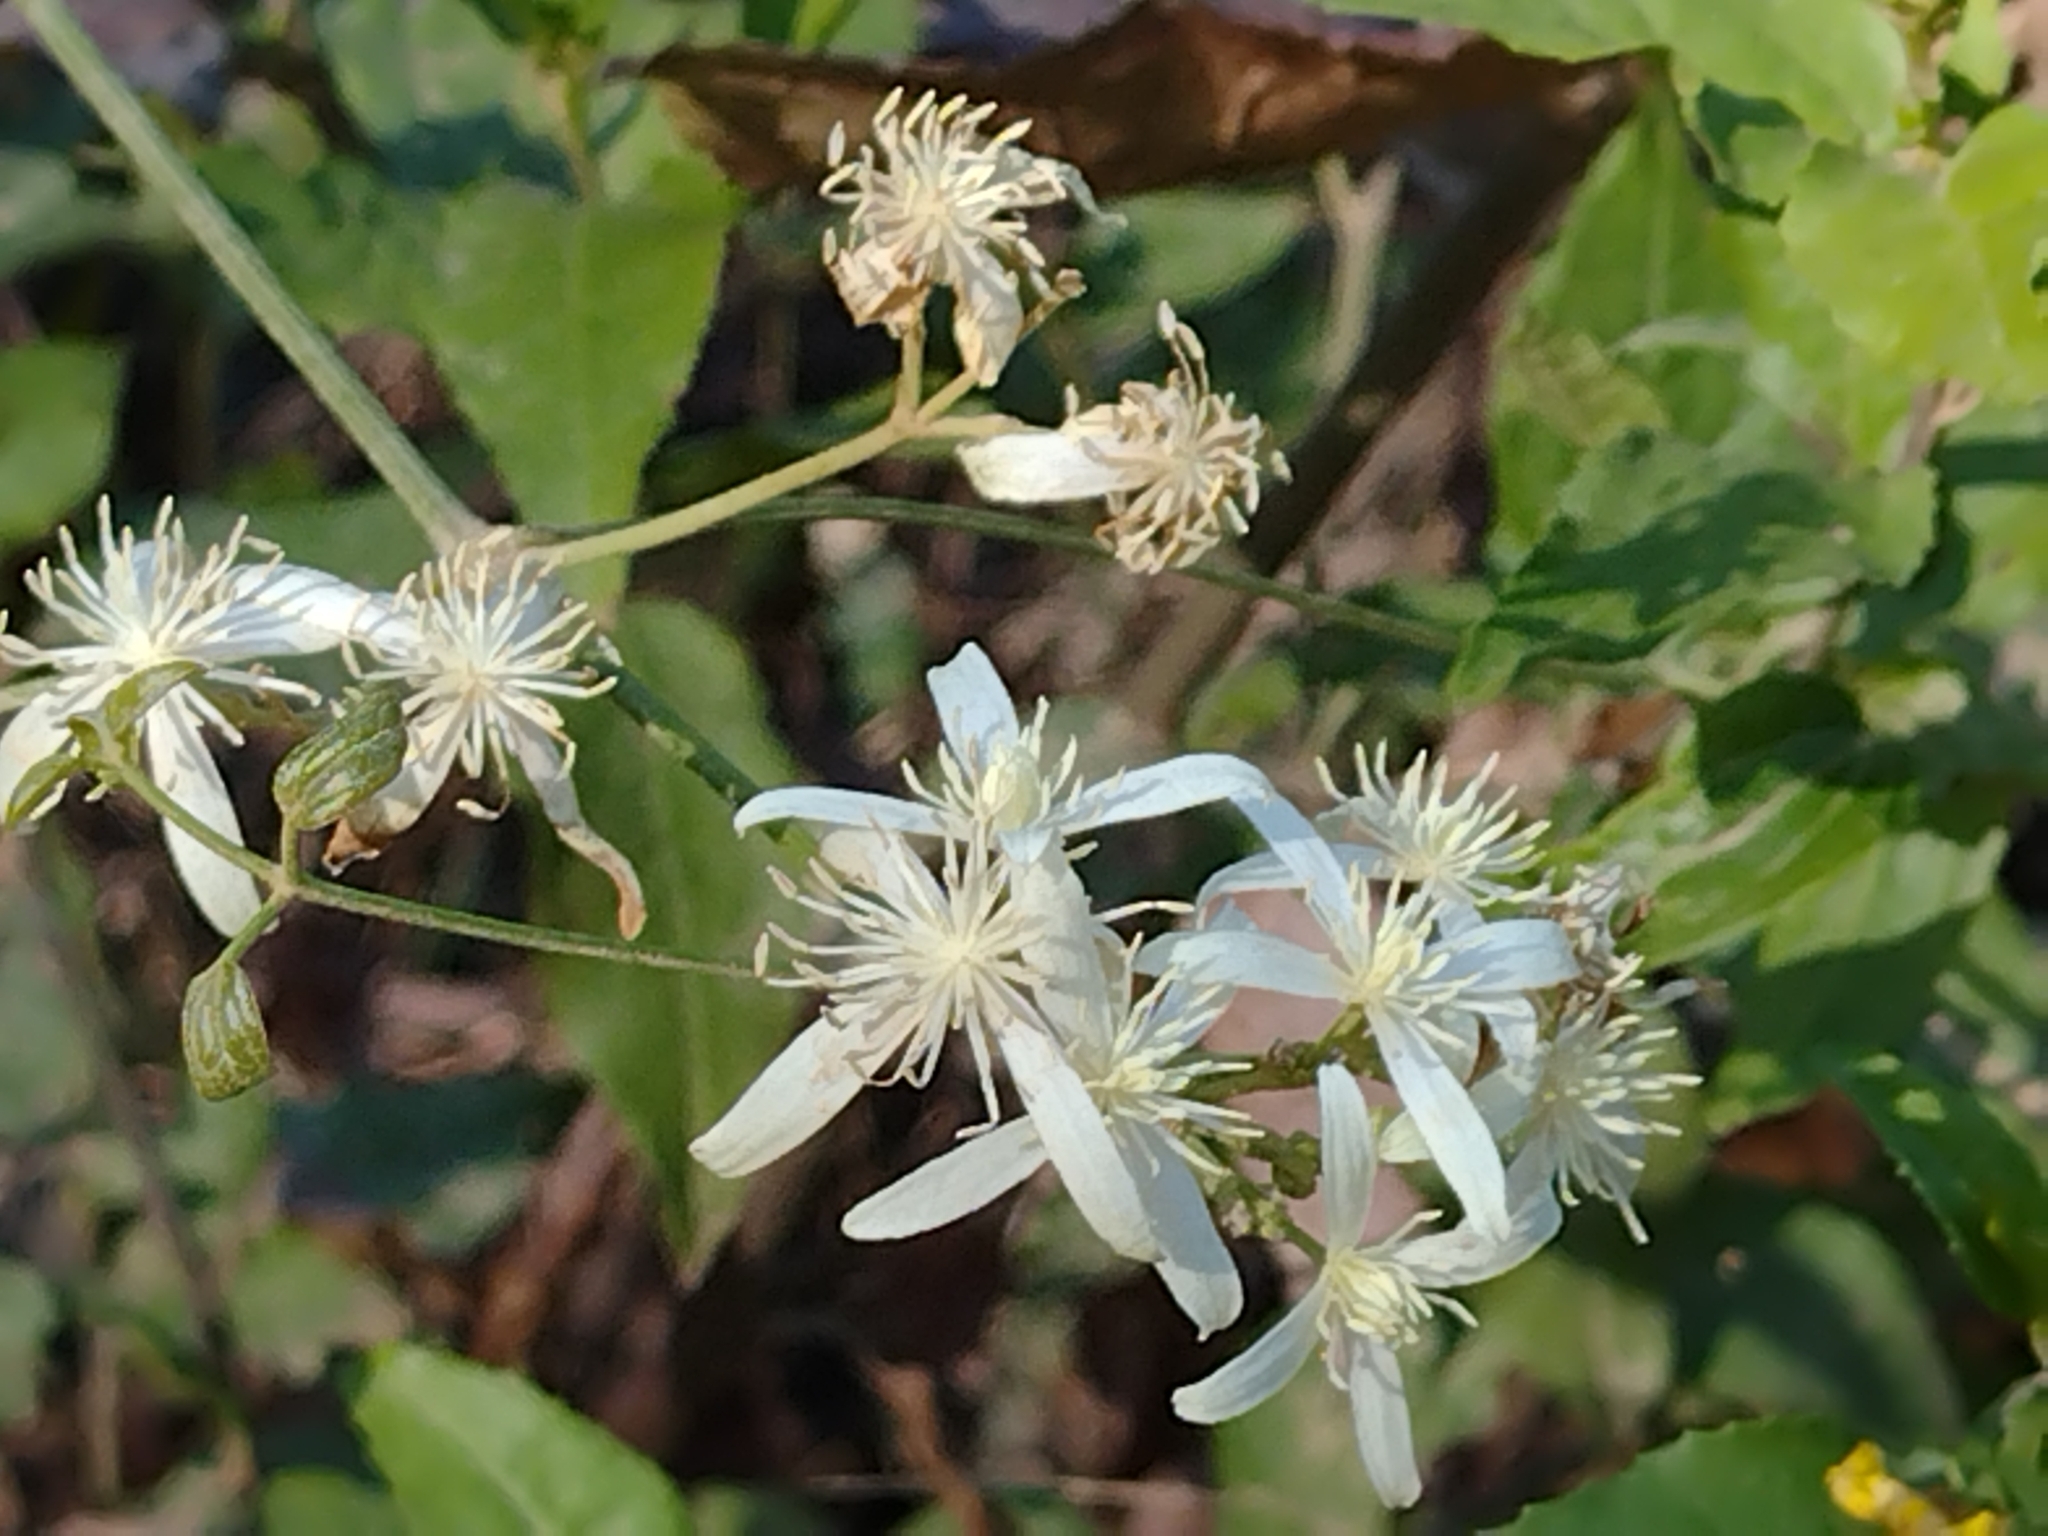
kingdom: Plantae
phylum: Tracheophyta
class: Magnoliopsida
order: Ranunculales
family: Ranunculaceae
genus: Clematis
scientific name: Clematis glycinoides
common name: Forest clematis
